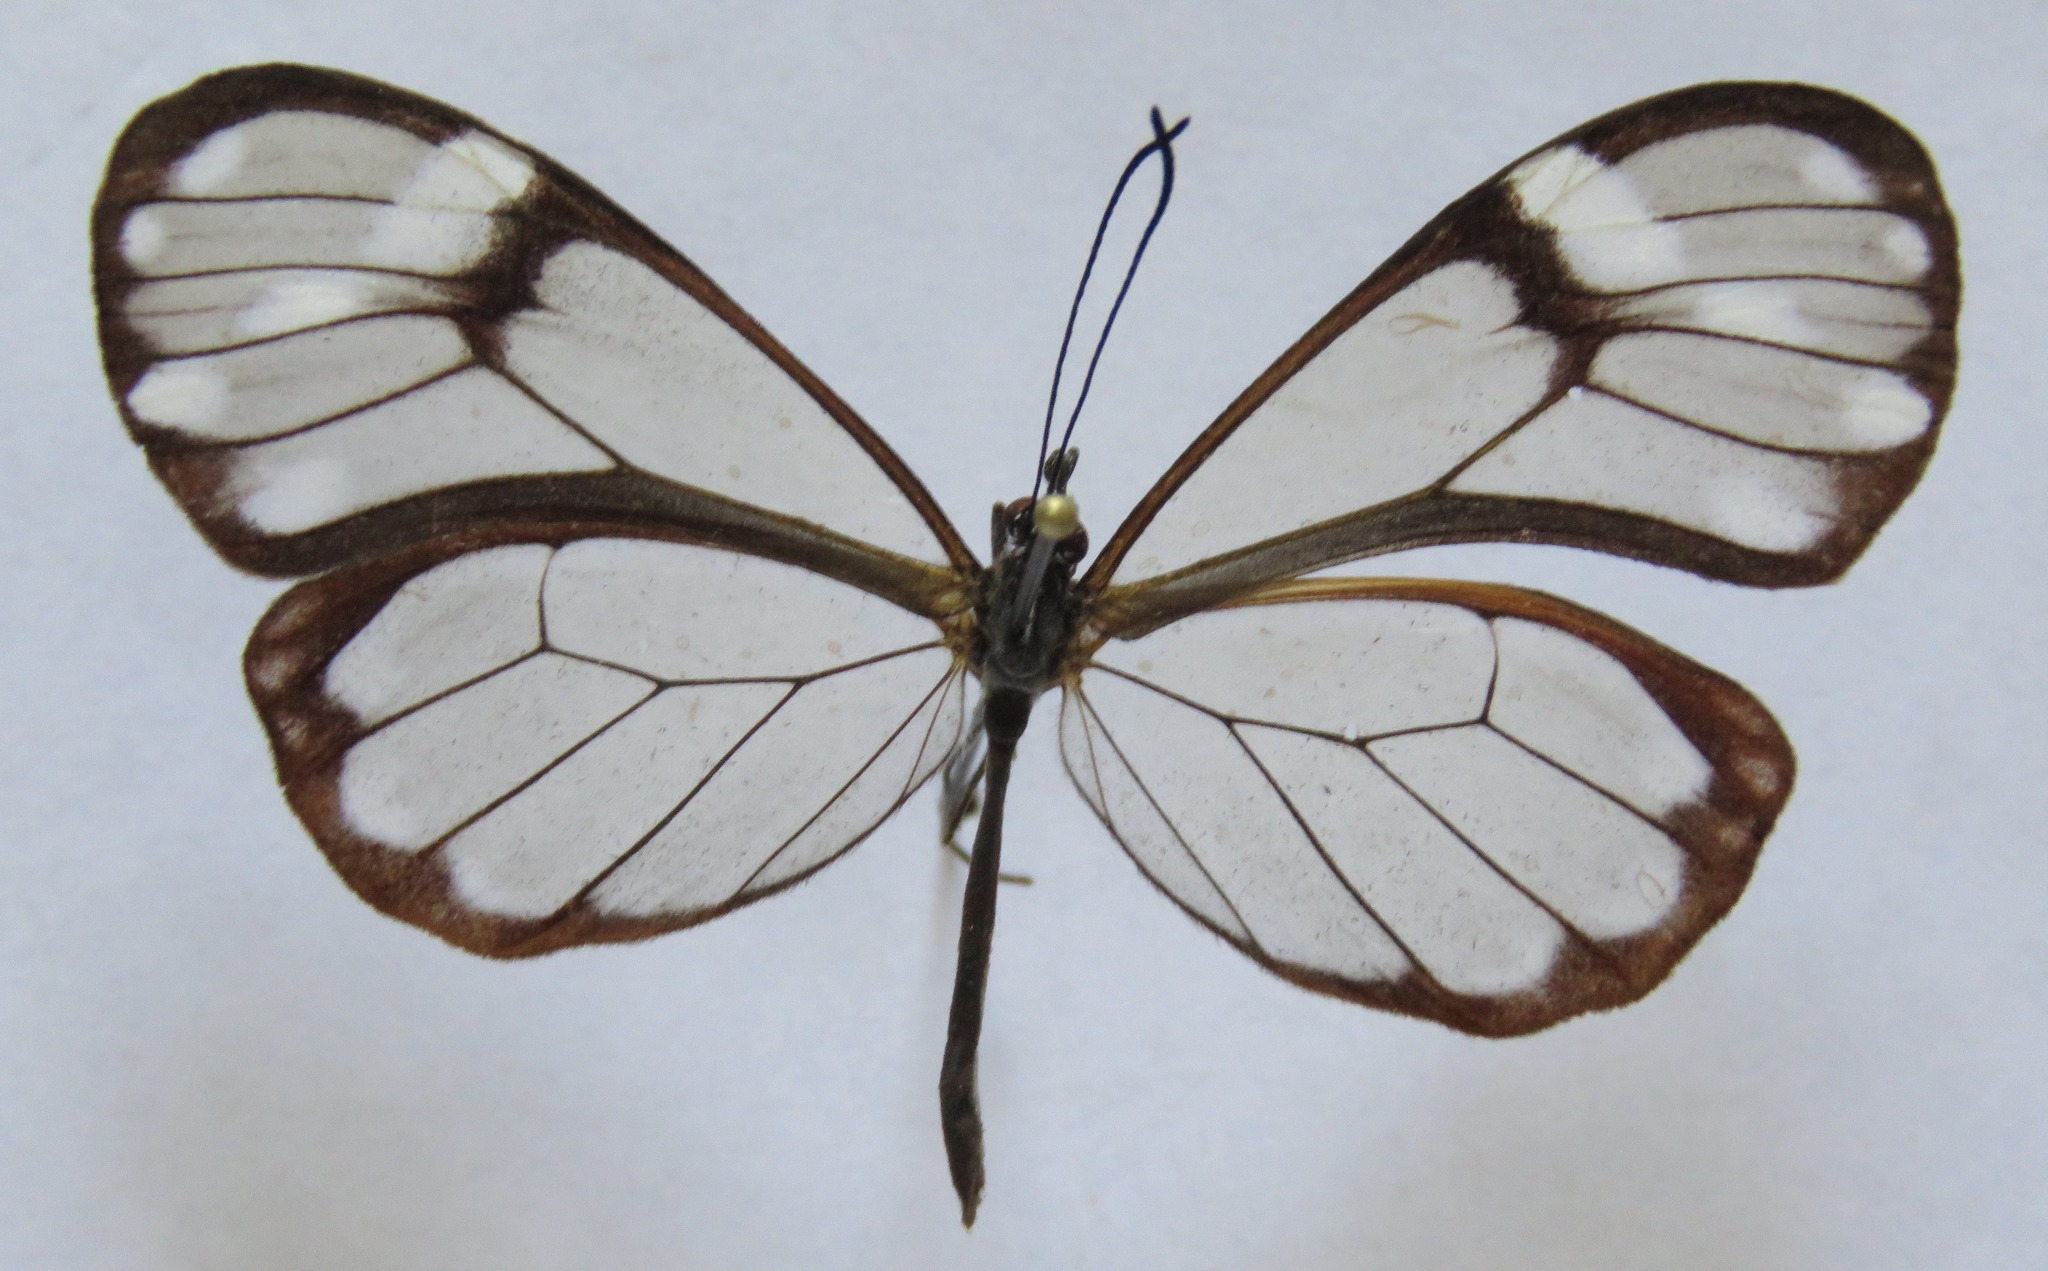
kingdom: Animalia
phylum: Arthropoda
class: Insecta
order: Lepidoptera
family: Nymphalidae
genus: Greta
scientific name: Greta annette
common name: White-spotted clearwing
